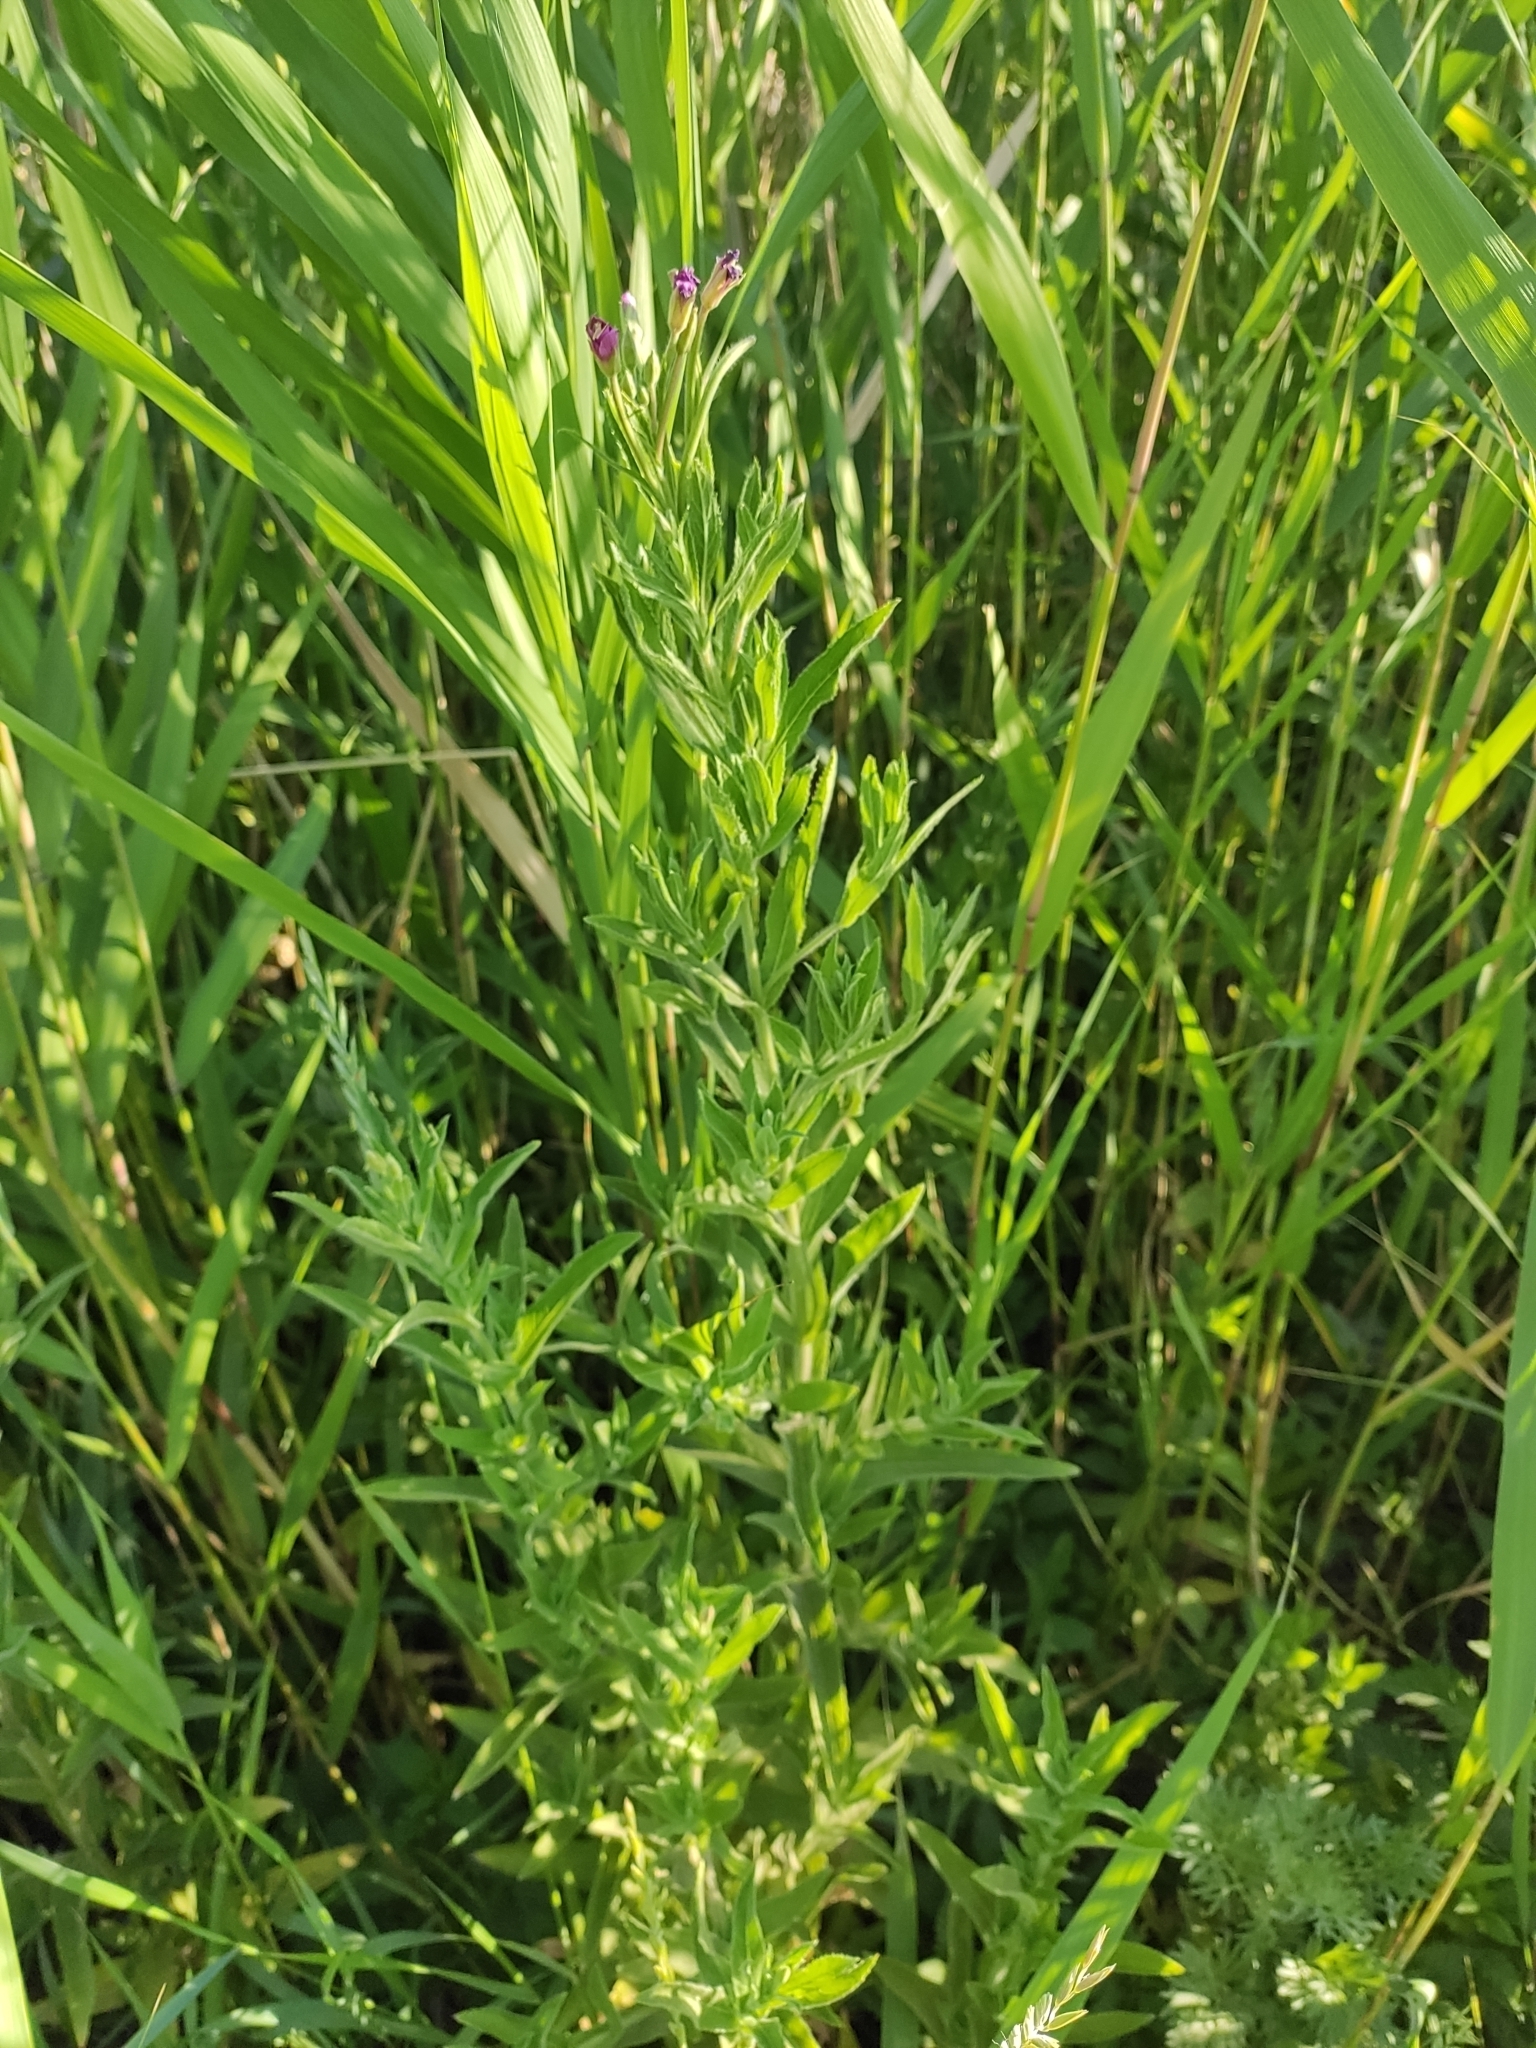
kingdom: Plantae
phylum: Tracheophyta
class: Magnoliopsida
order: Myrtales
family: Onagraceae
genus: Epilobium
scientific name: Epilobium hirsutum
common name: Great willowherb
